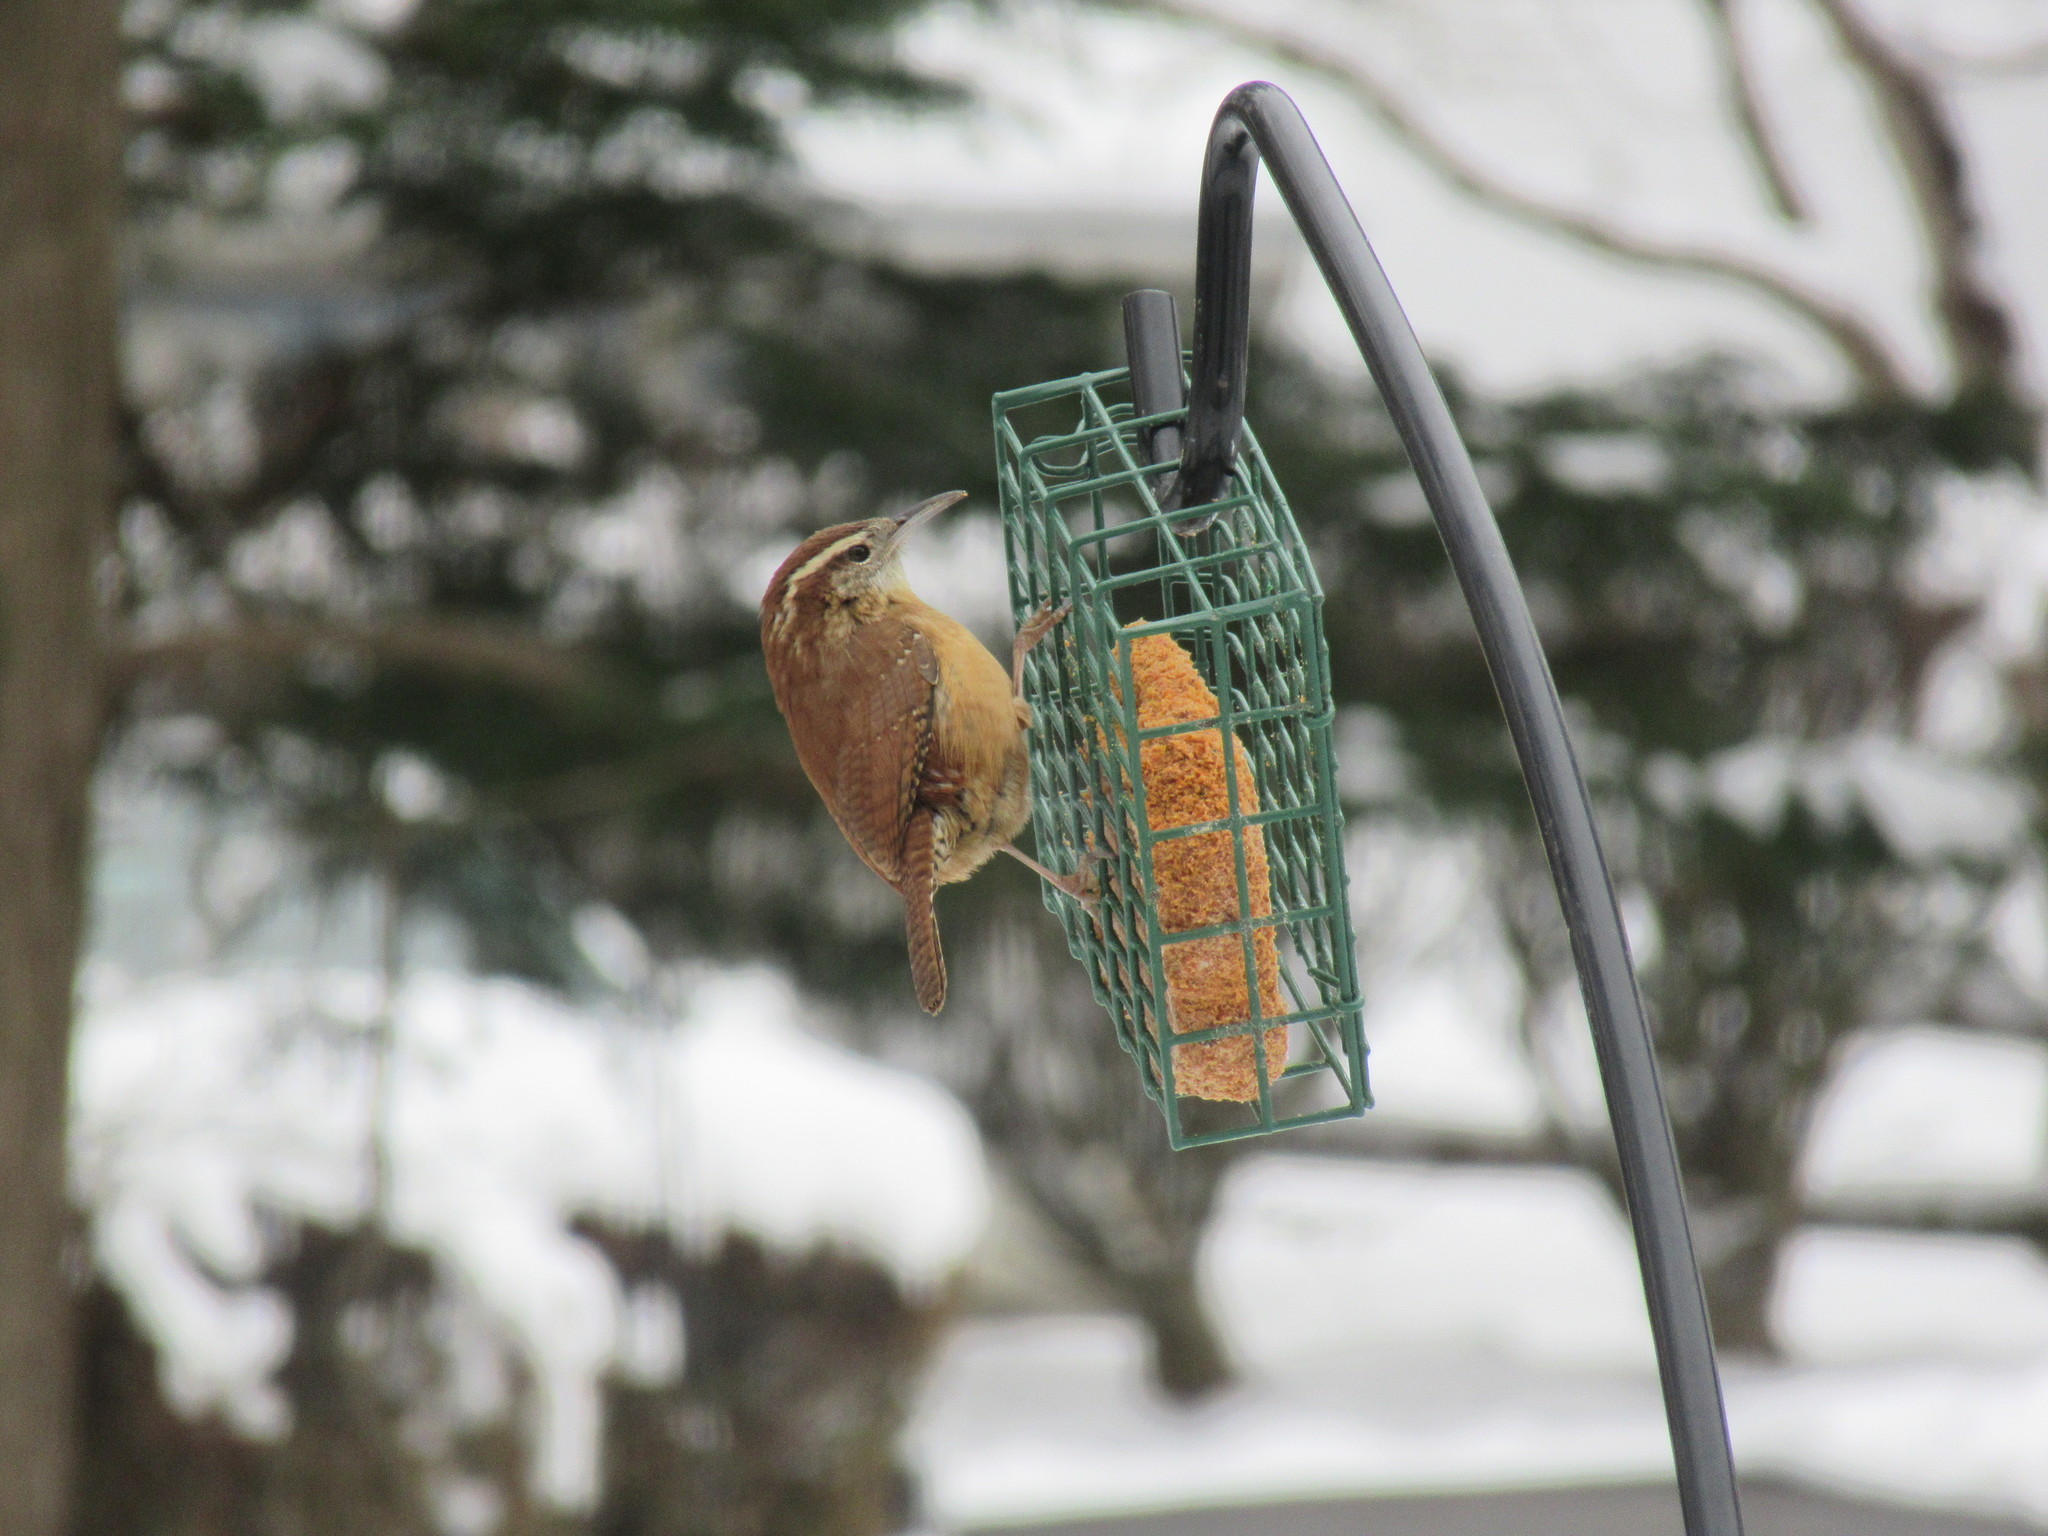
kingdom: Animalia
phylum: Chordata
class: Aves
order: Passeriformes
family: Troglodytidae
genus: Thryothorus
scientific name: Thryothorus ludovicianus
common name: Carolina wren
